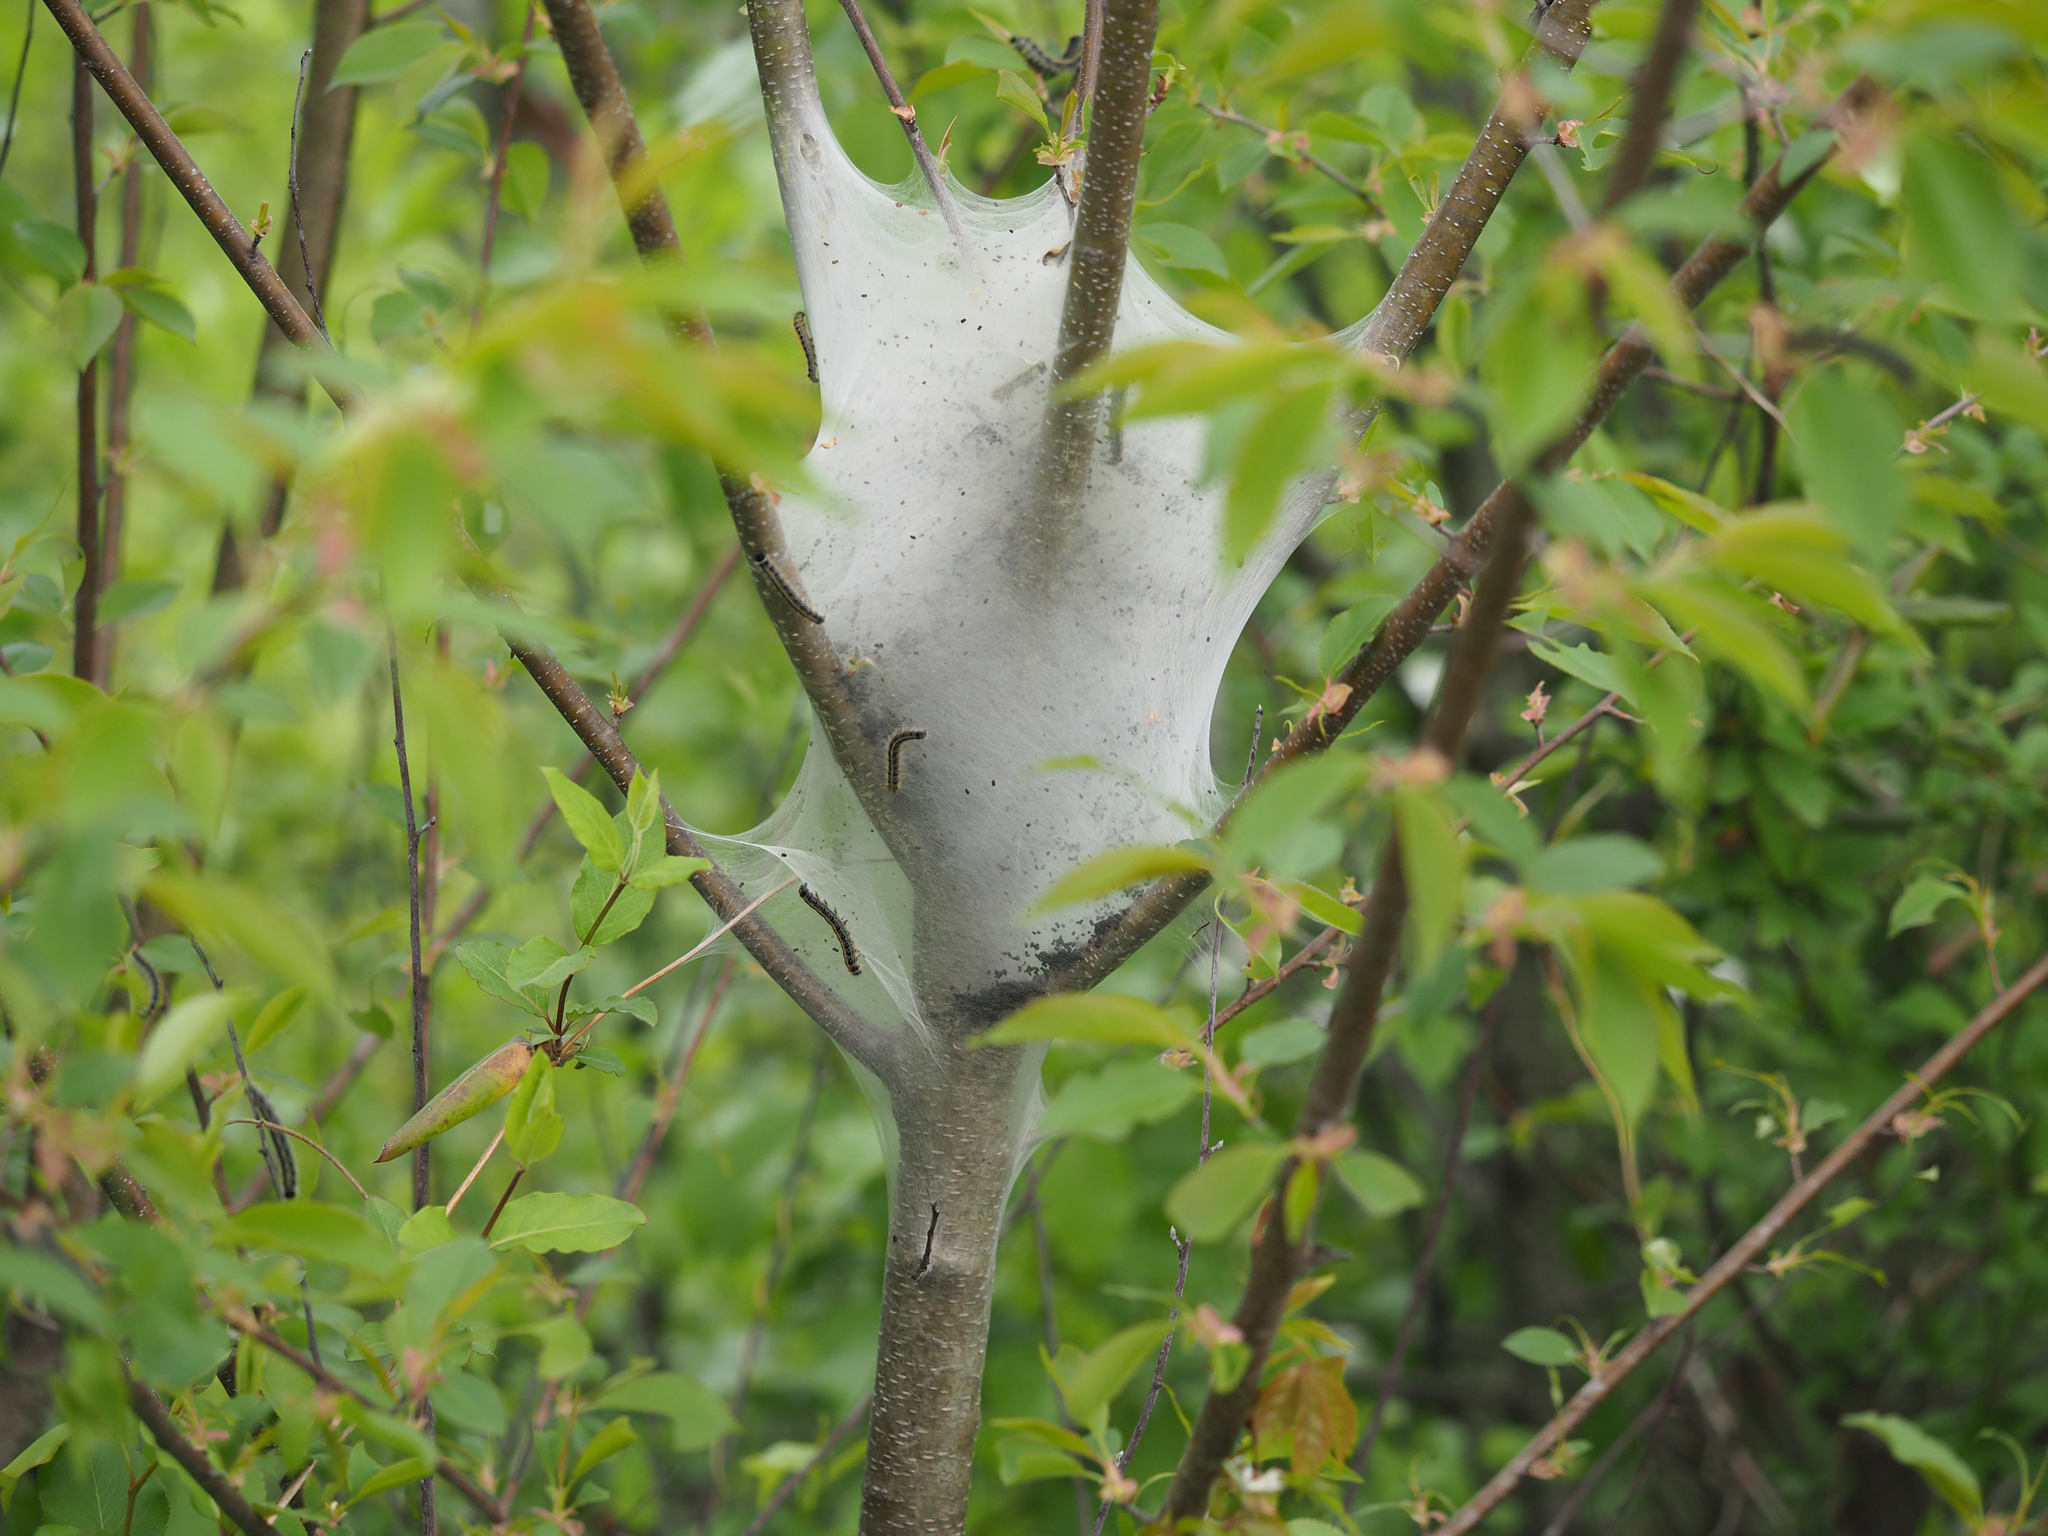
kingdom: Animalia
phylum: Arthropoda
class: Insecta
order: Lepidoptera
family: Lasiocampidae
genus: Malacosoma
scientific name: Malacosoma americana
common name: Eastern tent caterpillar moth
